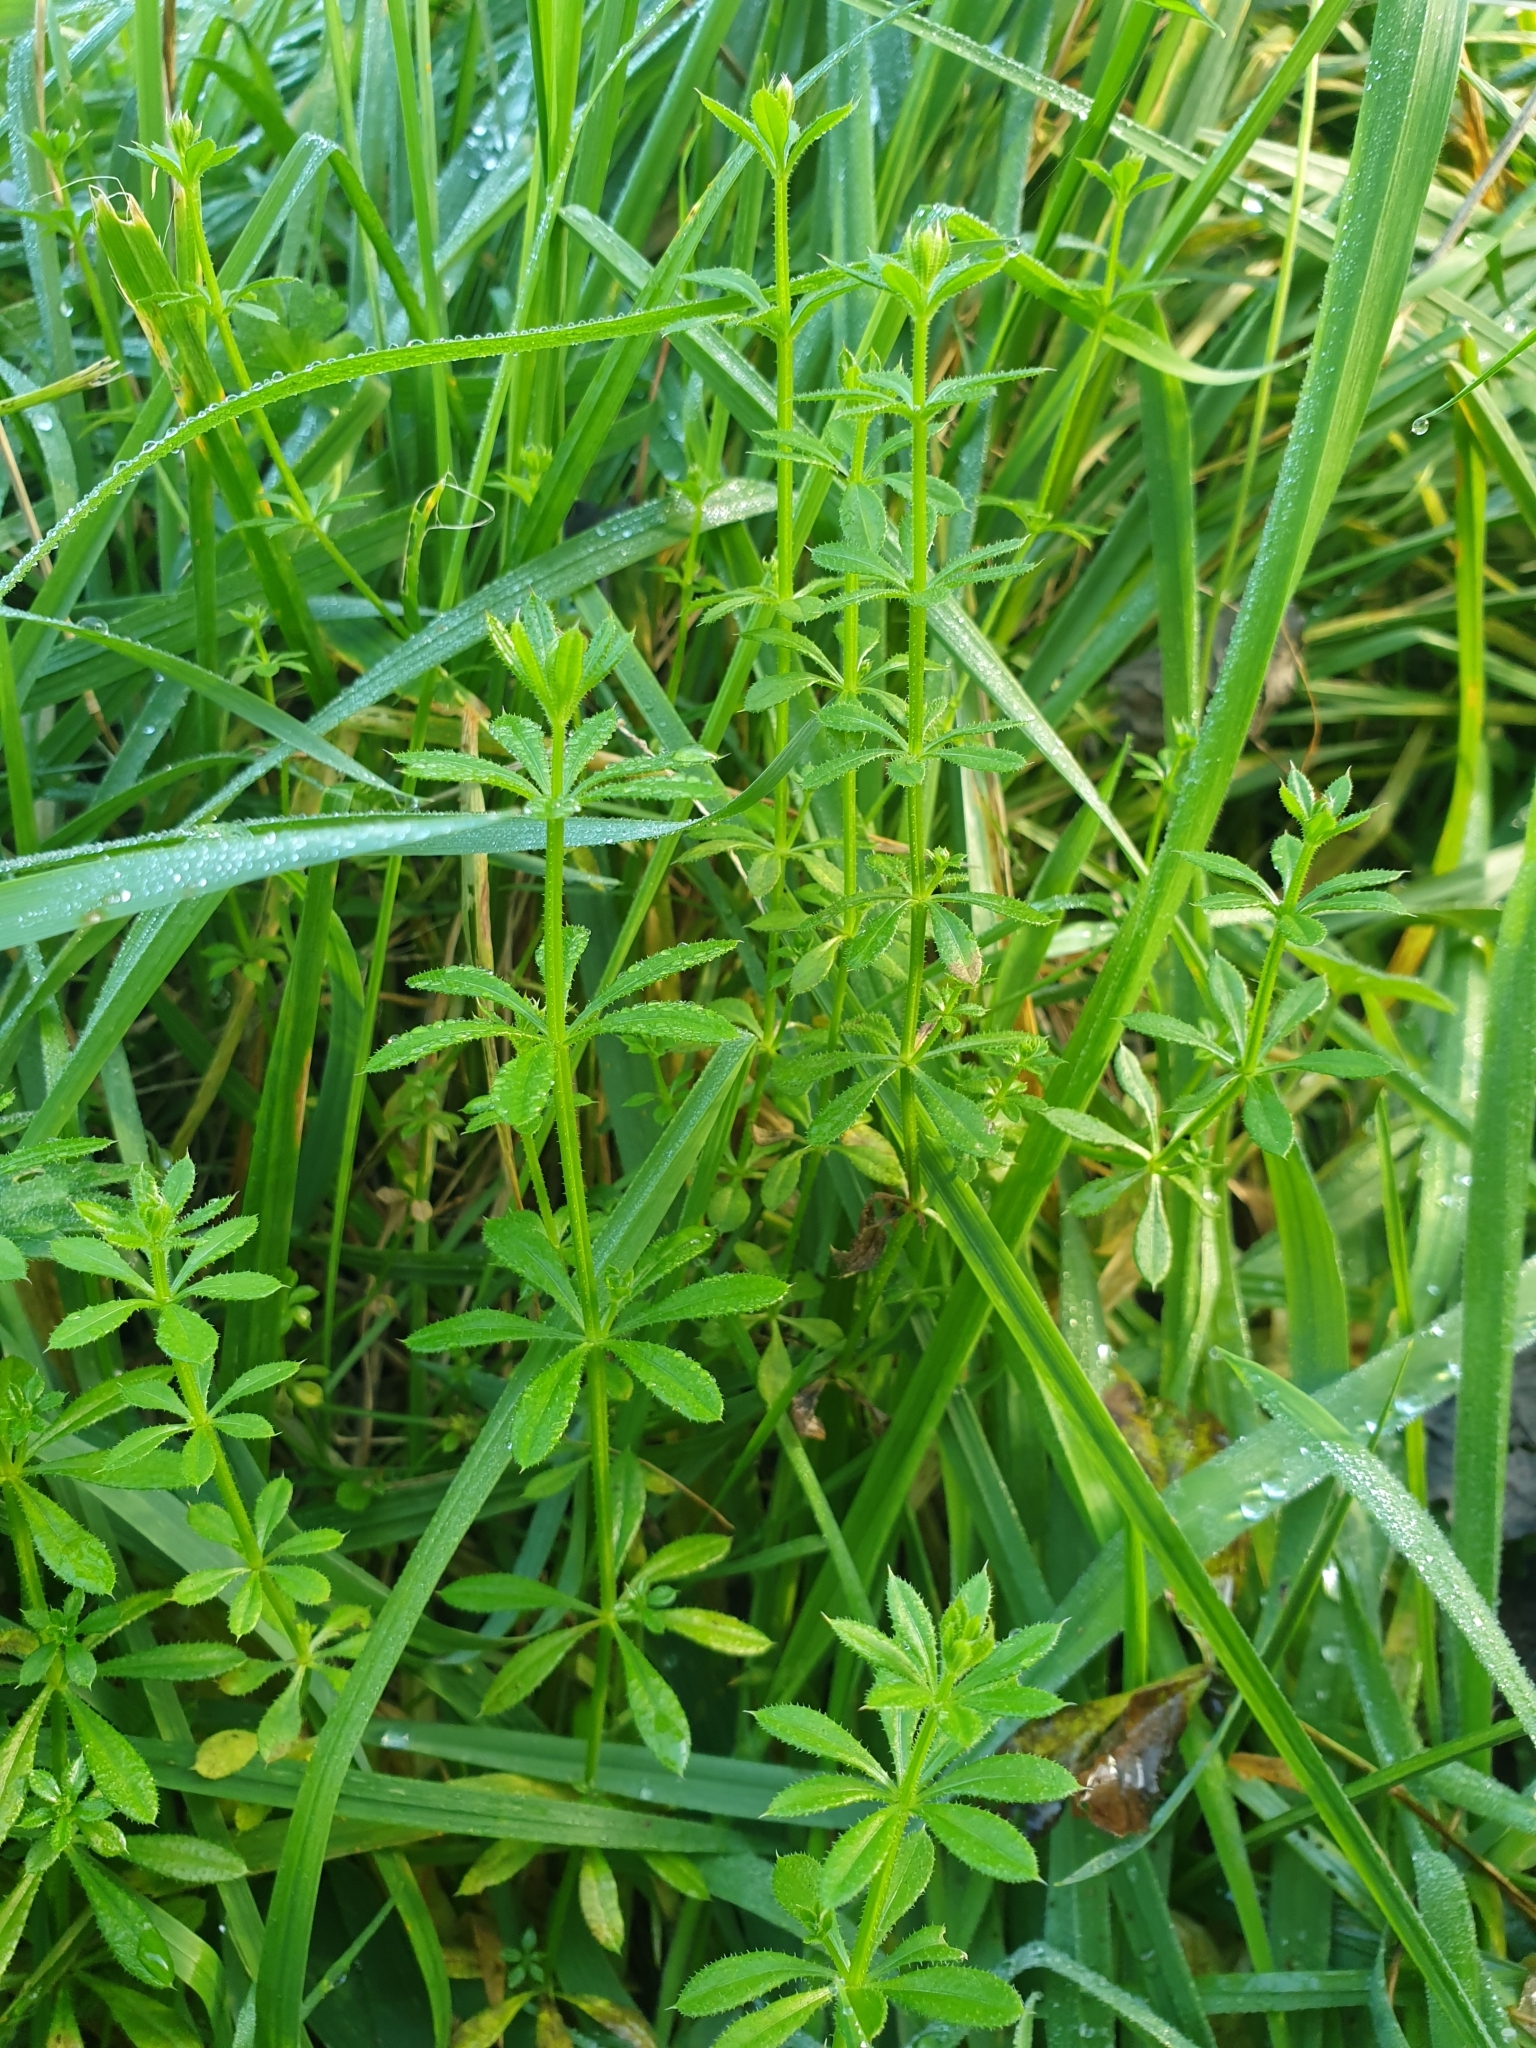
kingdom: Plantae
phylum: Tracheophyta
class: Magnoliopsida
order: Gentianales
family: Rubiaceae
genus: Galium
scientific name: Galium aparine
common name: Cleavers
